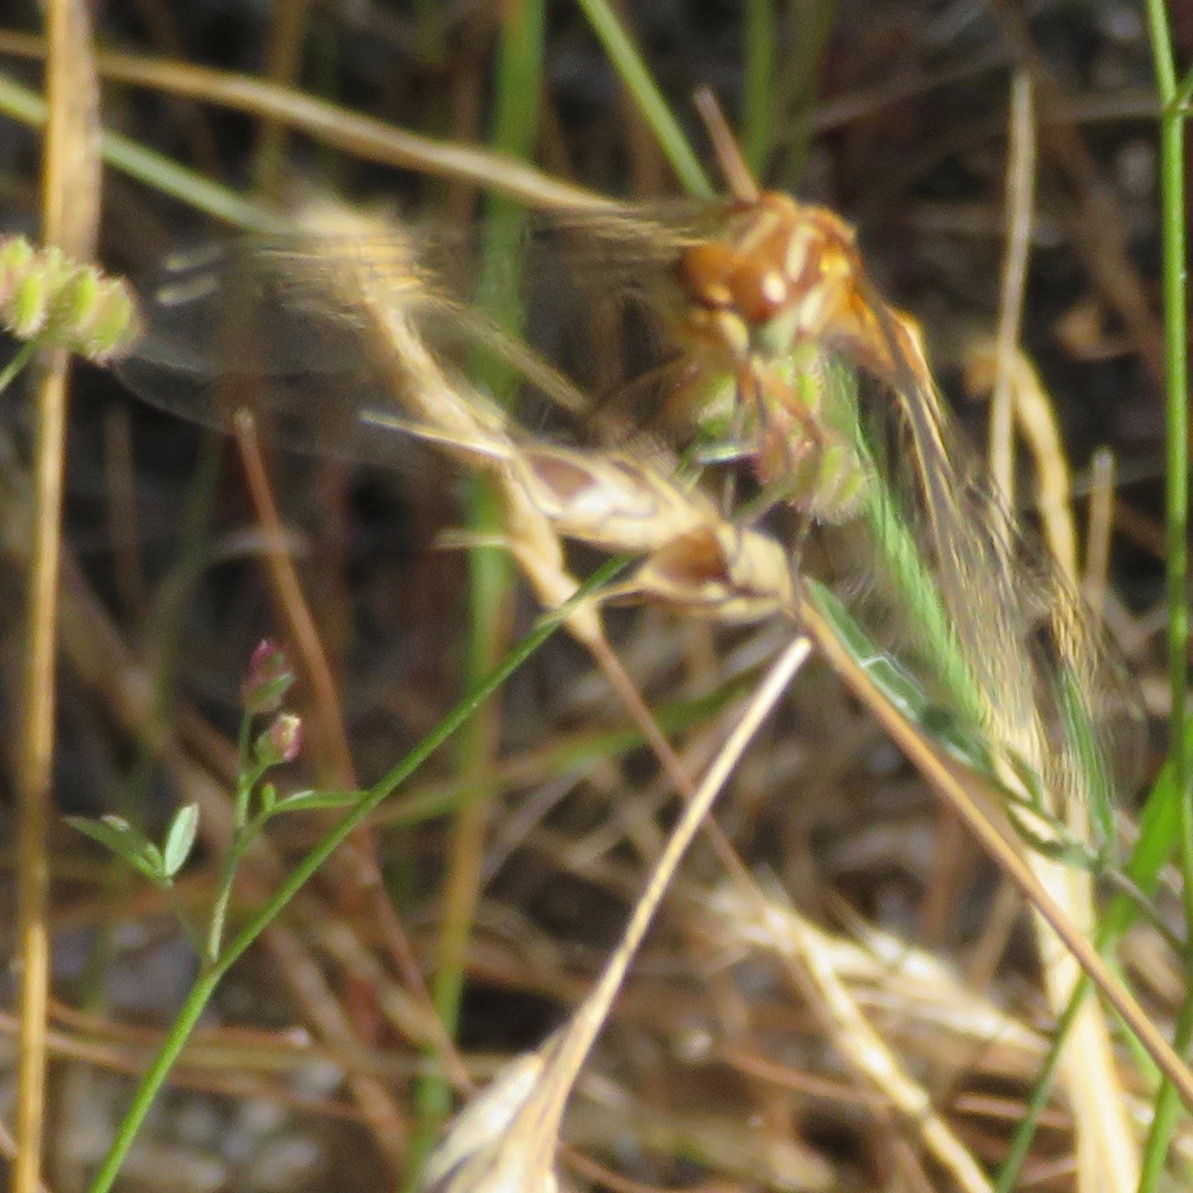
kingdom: Animalia
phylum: Arthropoda
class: Insecta
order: Odonata
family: Libellulidae
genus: Sympetrum
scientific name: Sympetrum pallipes
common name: Striped meadowhawk
